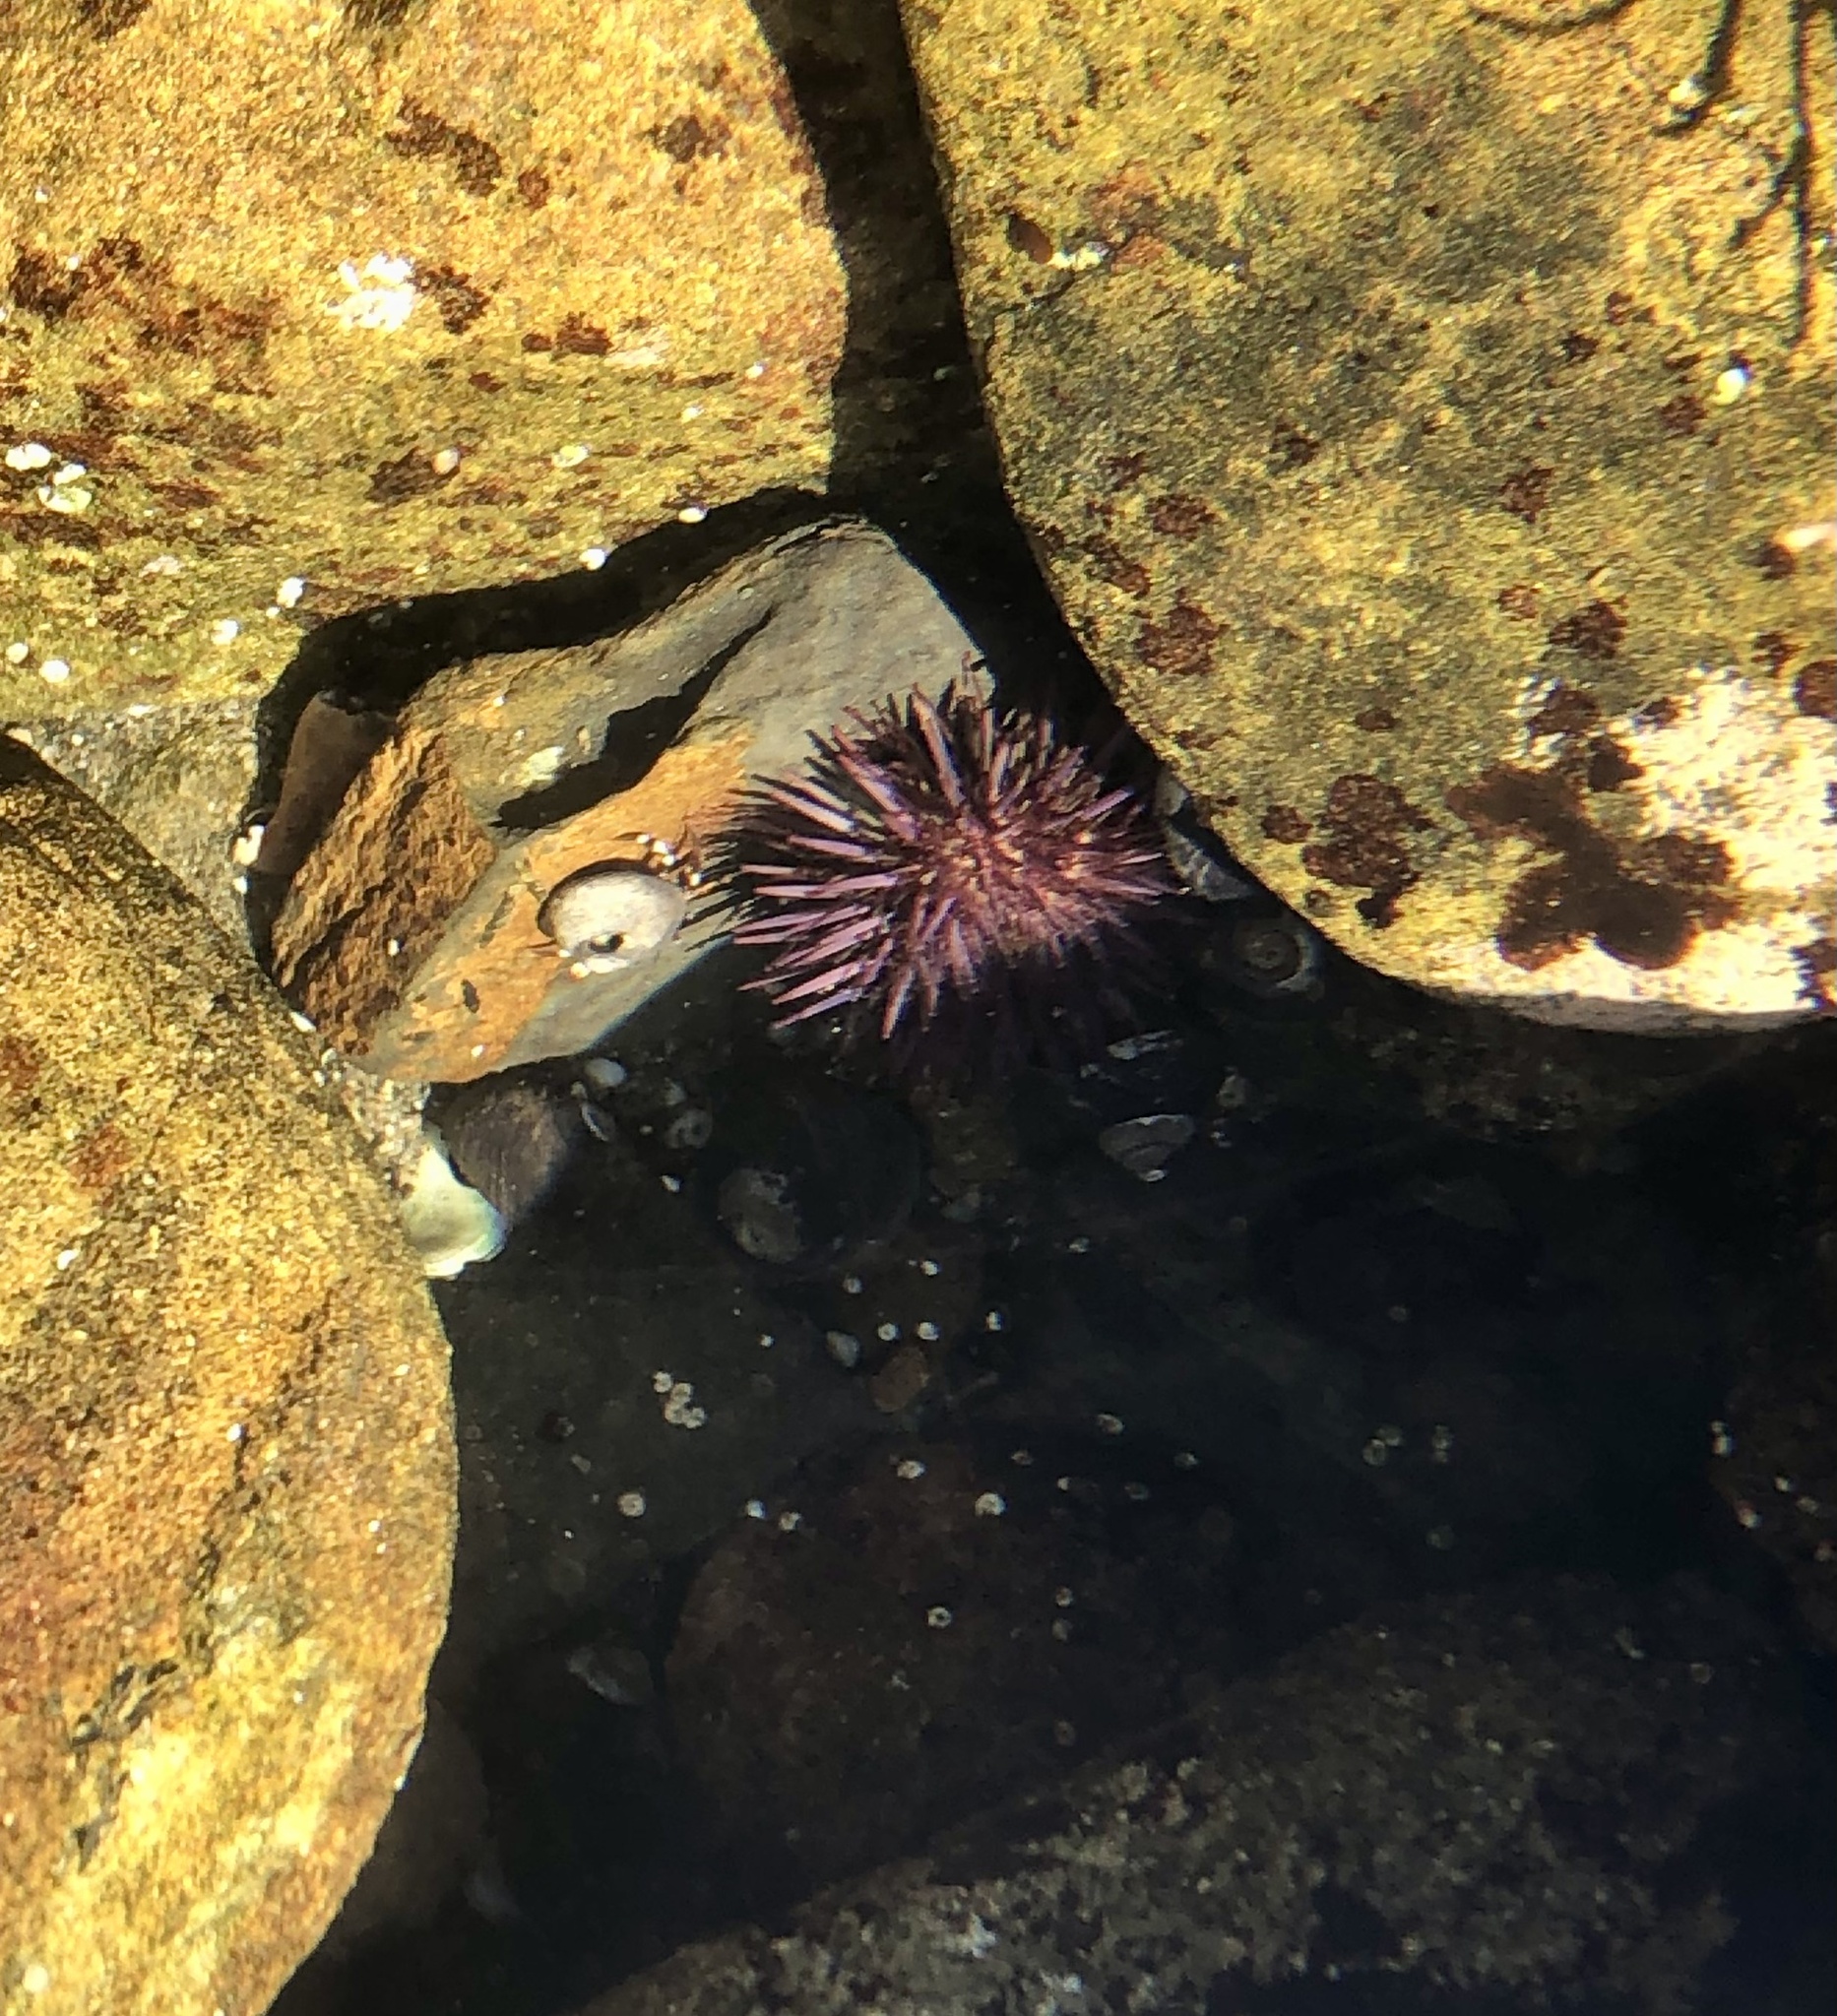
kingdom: Animalia
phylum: Echinodermata
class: Echinoidea
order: Camarodonta
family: Strongylocentrotidae
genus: Strongylocentrotus
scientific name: Strongylocentrotus purpuratus
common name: Purple sea urchin
